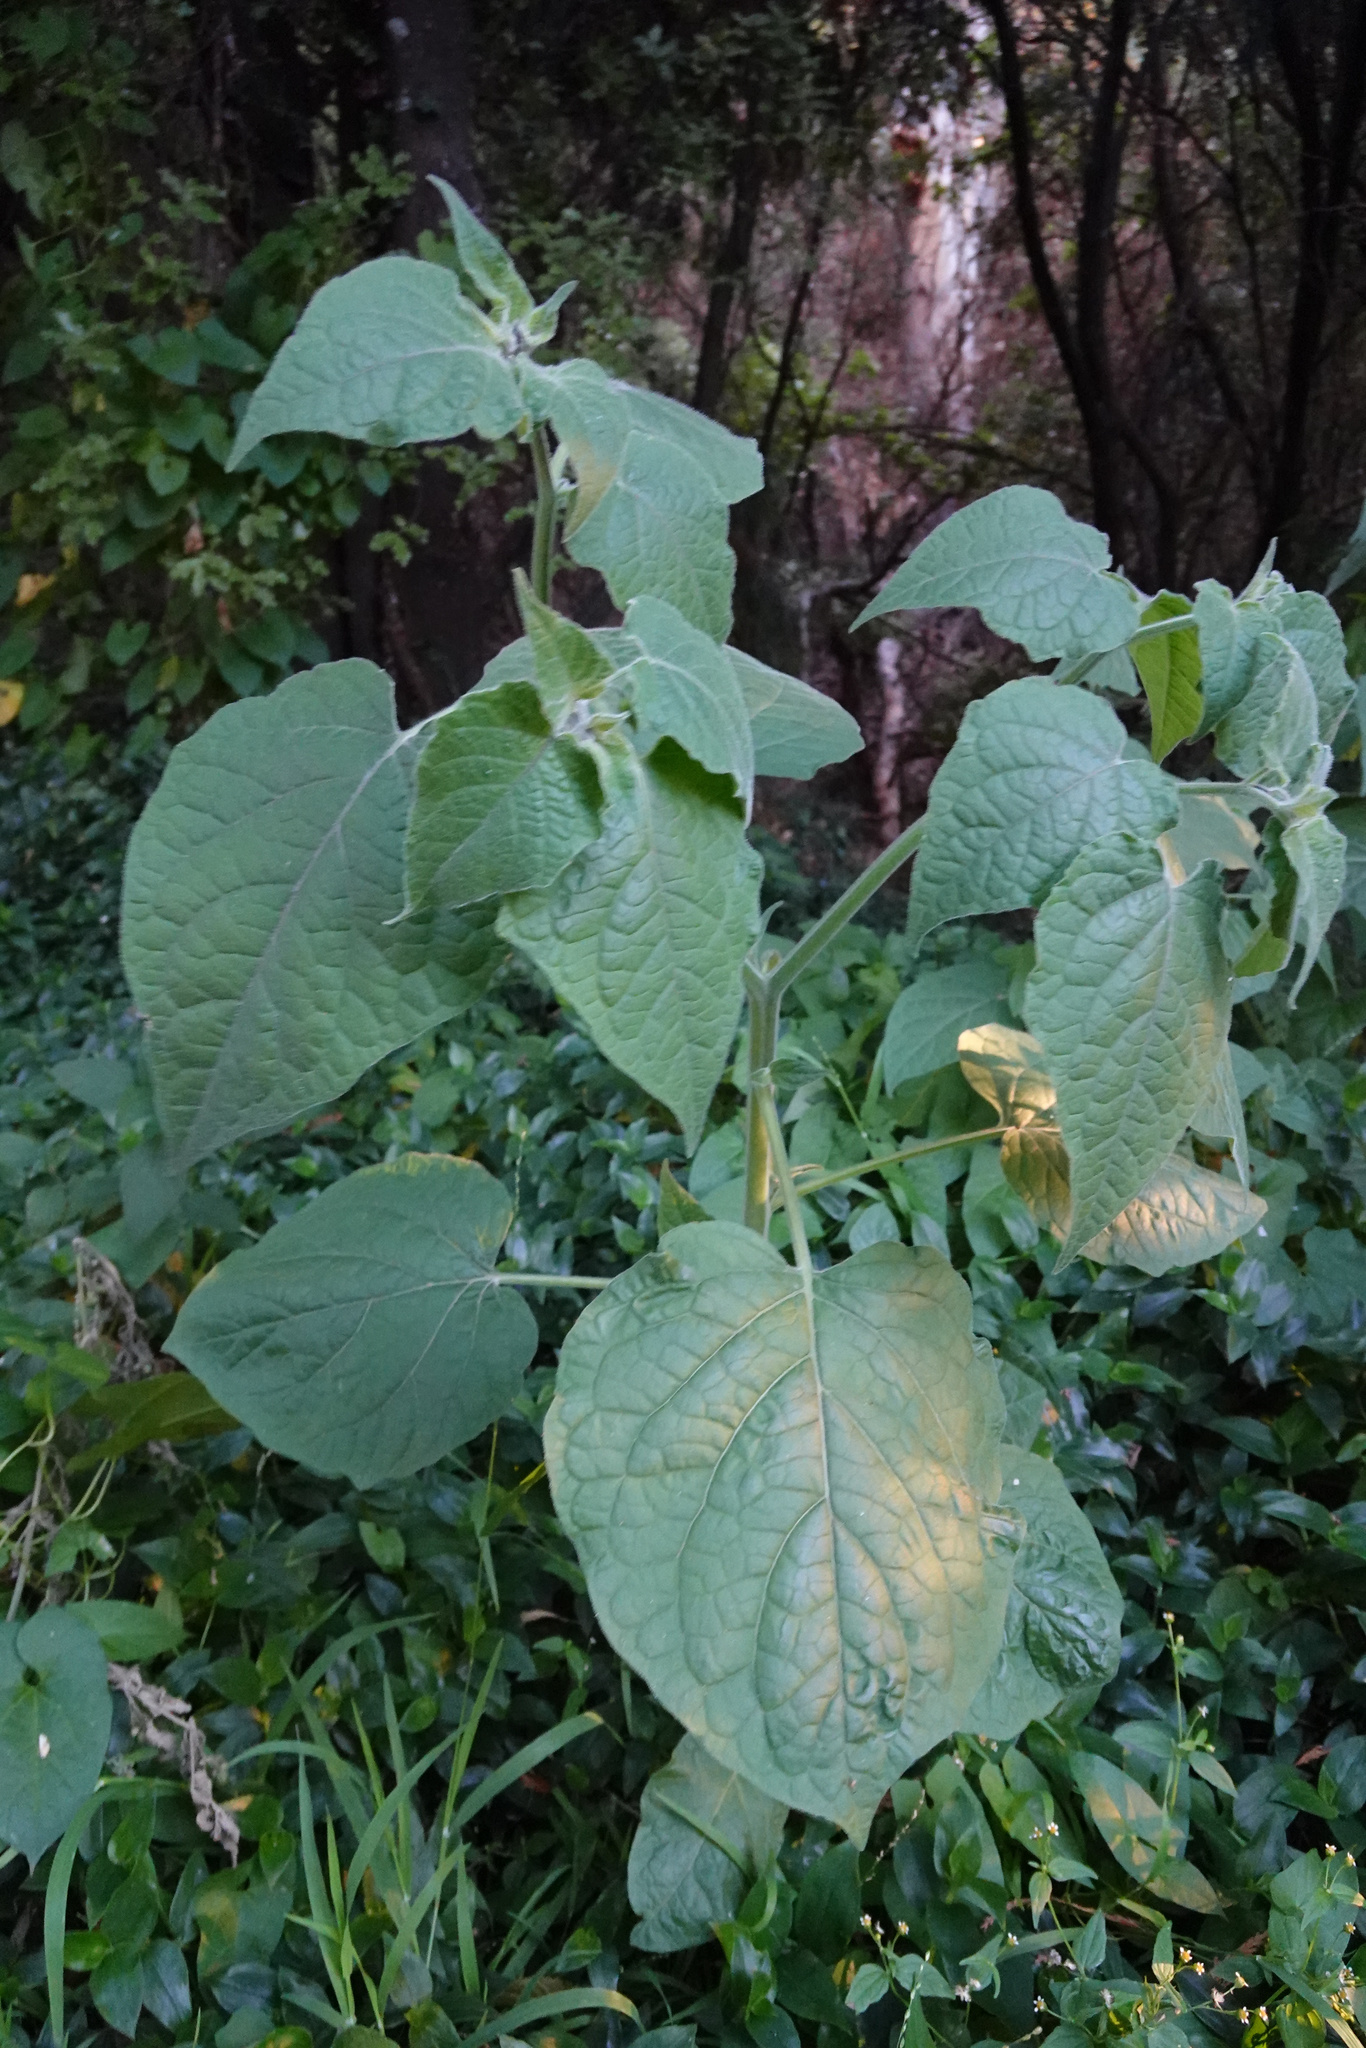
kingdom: Plantae
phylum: Tracheophyta
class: Magnoliopsida
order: Solanales
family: Solanaceae
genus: Physalis
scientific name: Physalis peruviana
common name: Cape-gooseberry
